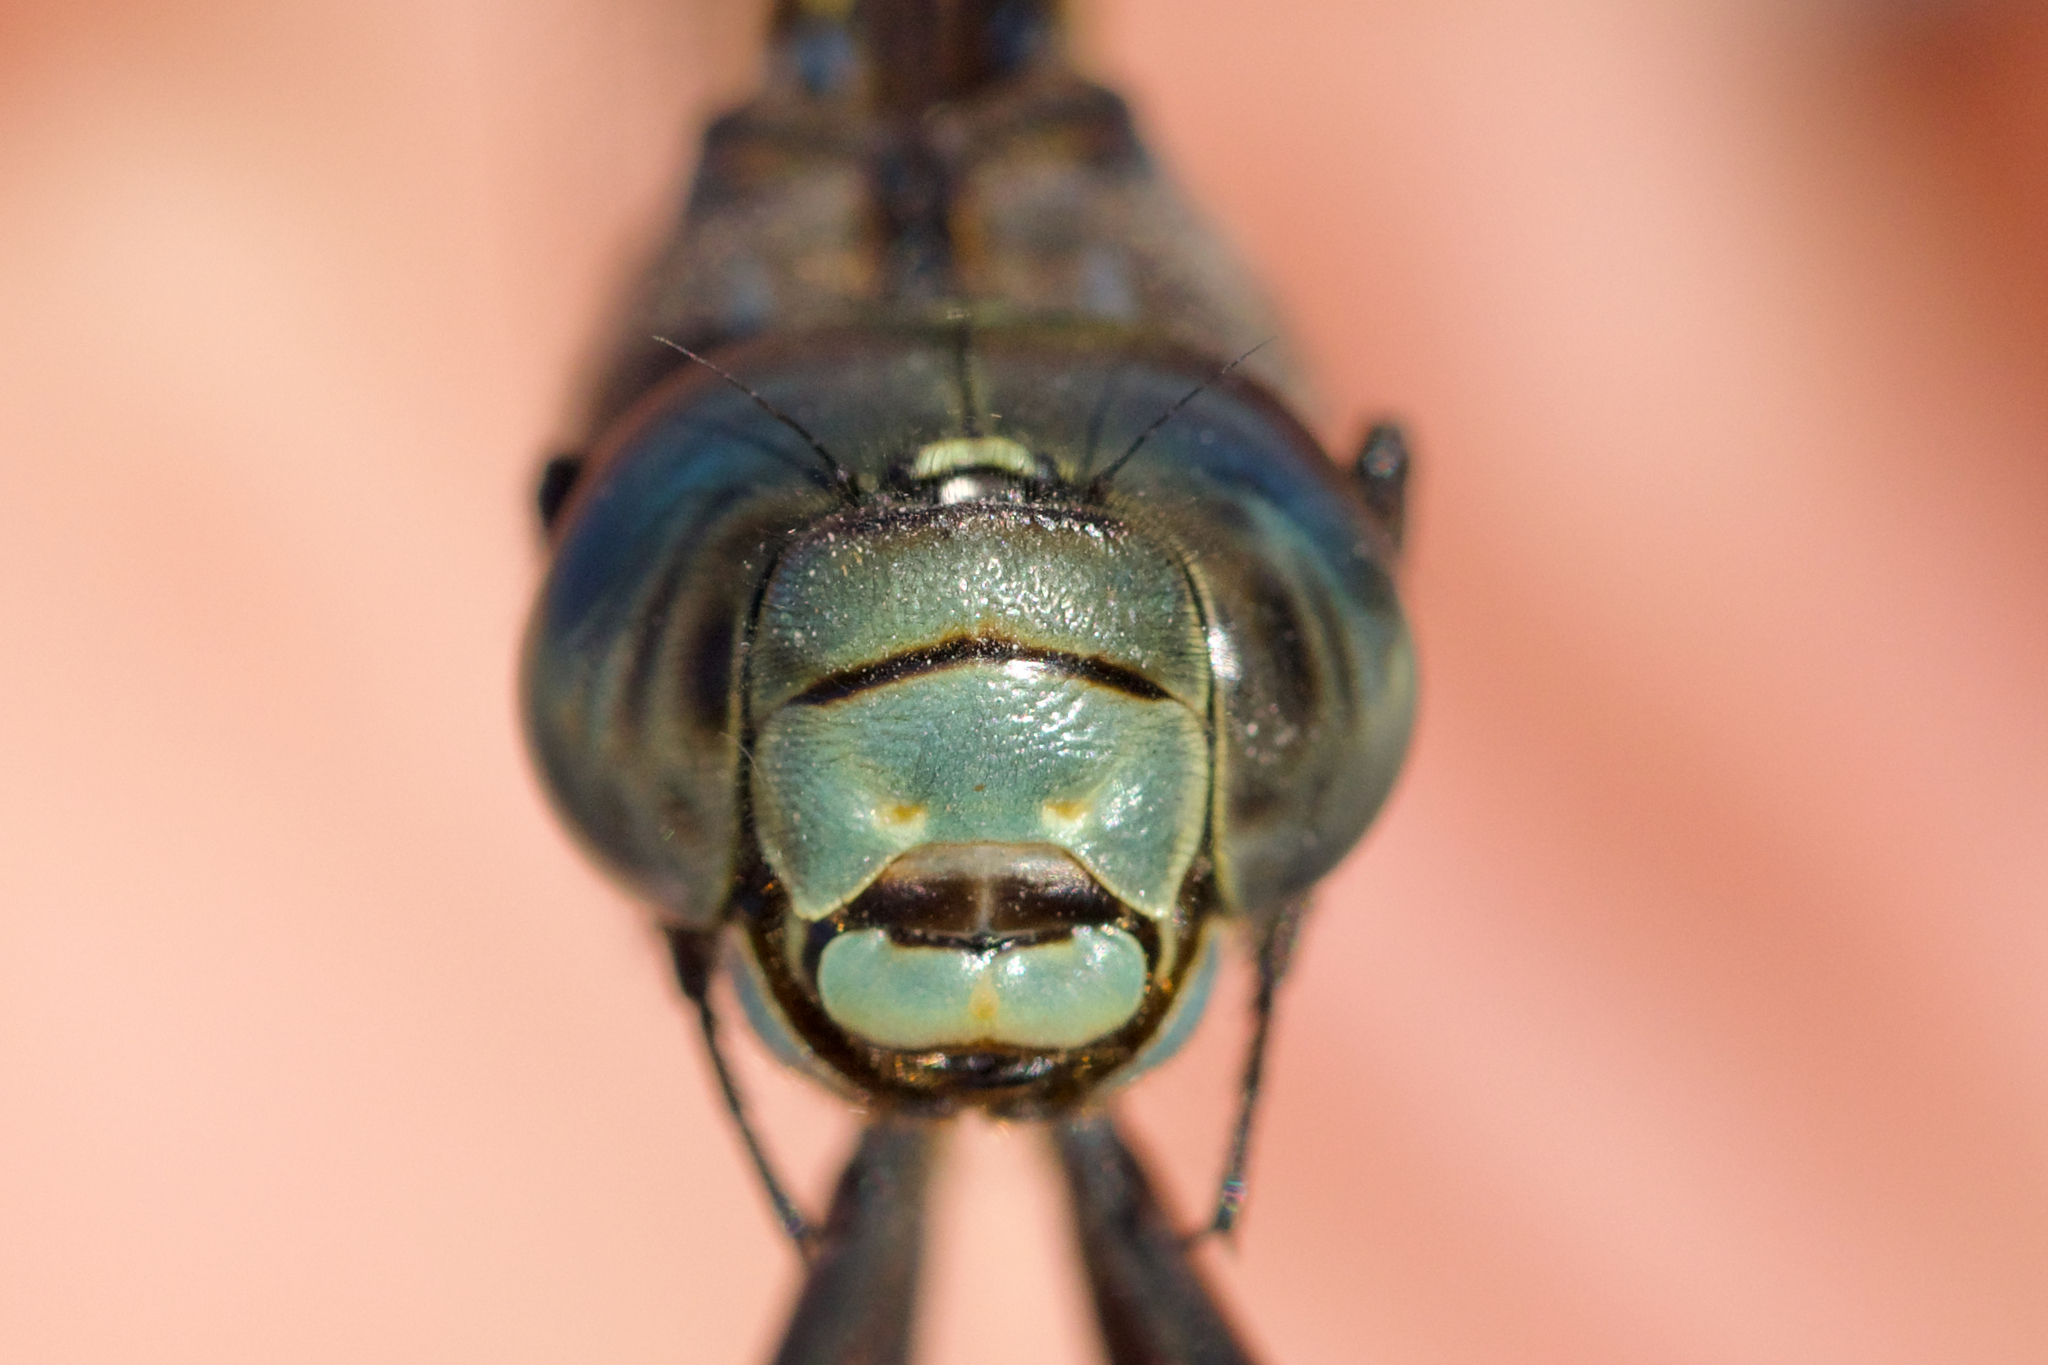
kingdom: Animalia
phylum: Arthropoda
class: Insecta
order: Odonata
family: Aeshnidae
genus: Aeshna
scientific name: Aeshna eremita
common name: Lake darner
